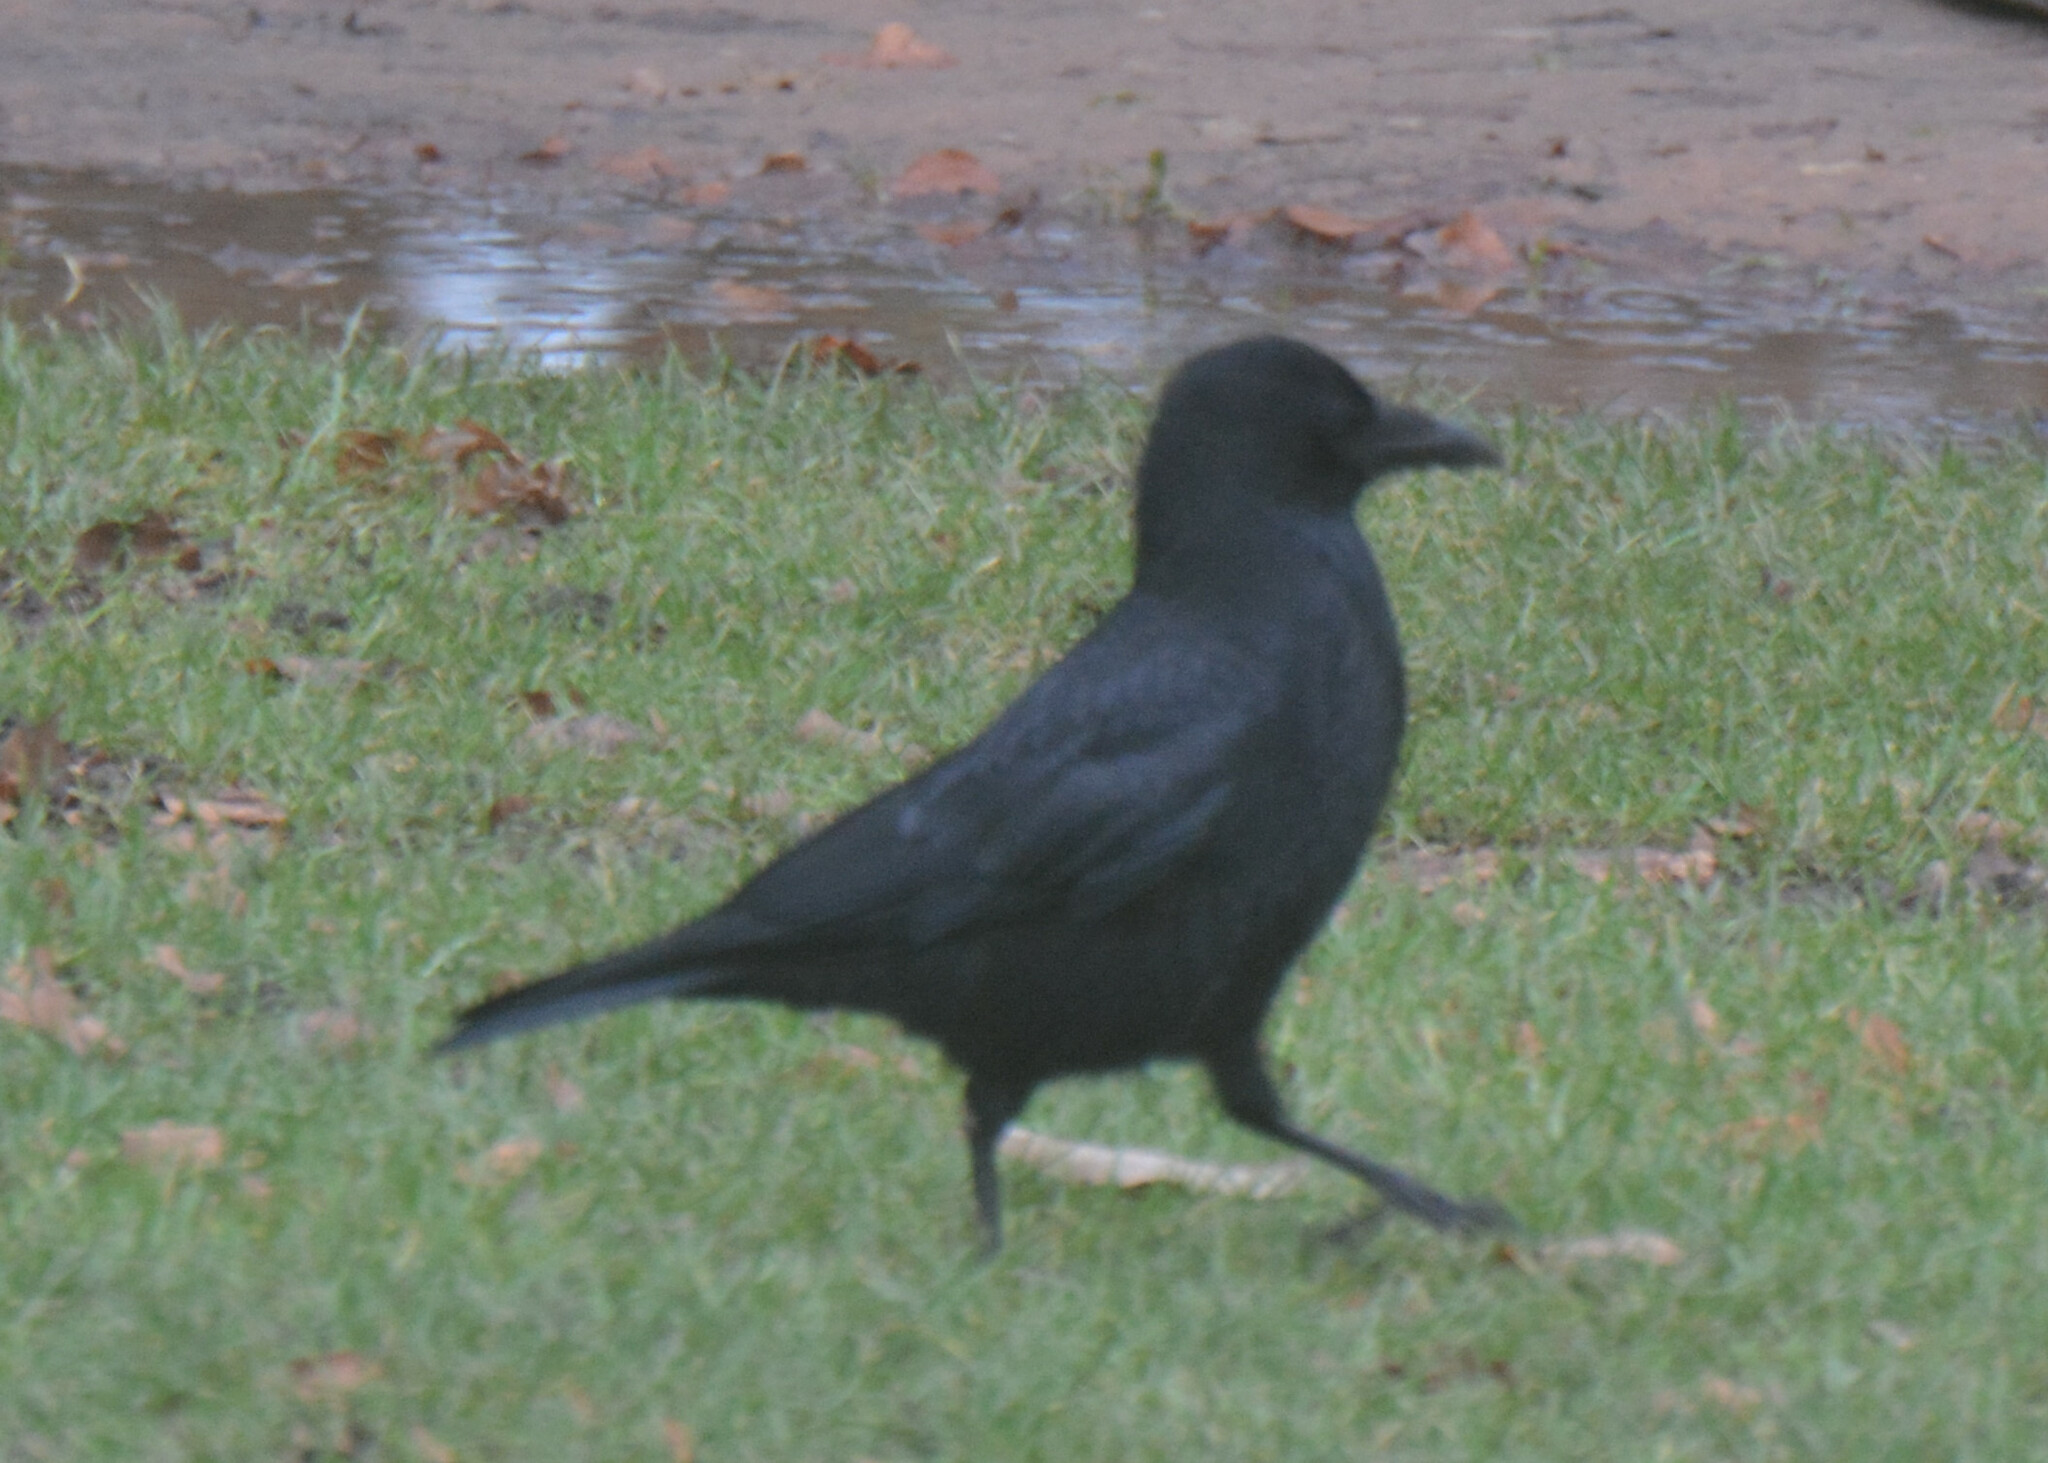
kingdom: Animalia
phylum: Chordata
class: Aves
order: Passeriformes
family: Corvidae
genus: Corvus
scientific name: Corvus corone
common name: Carrion crow
